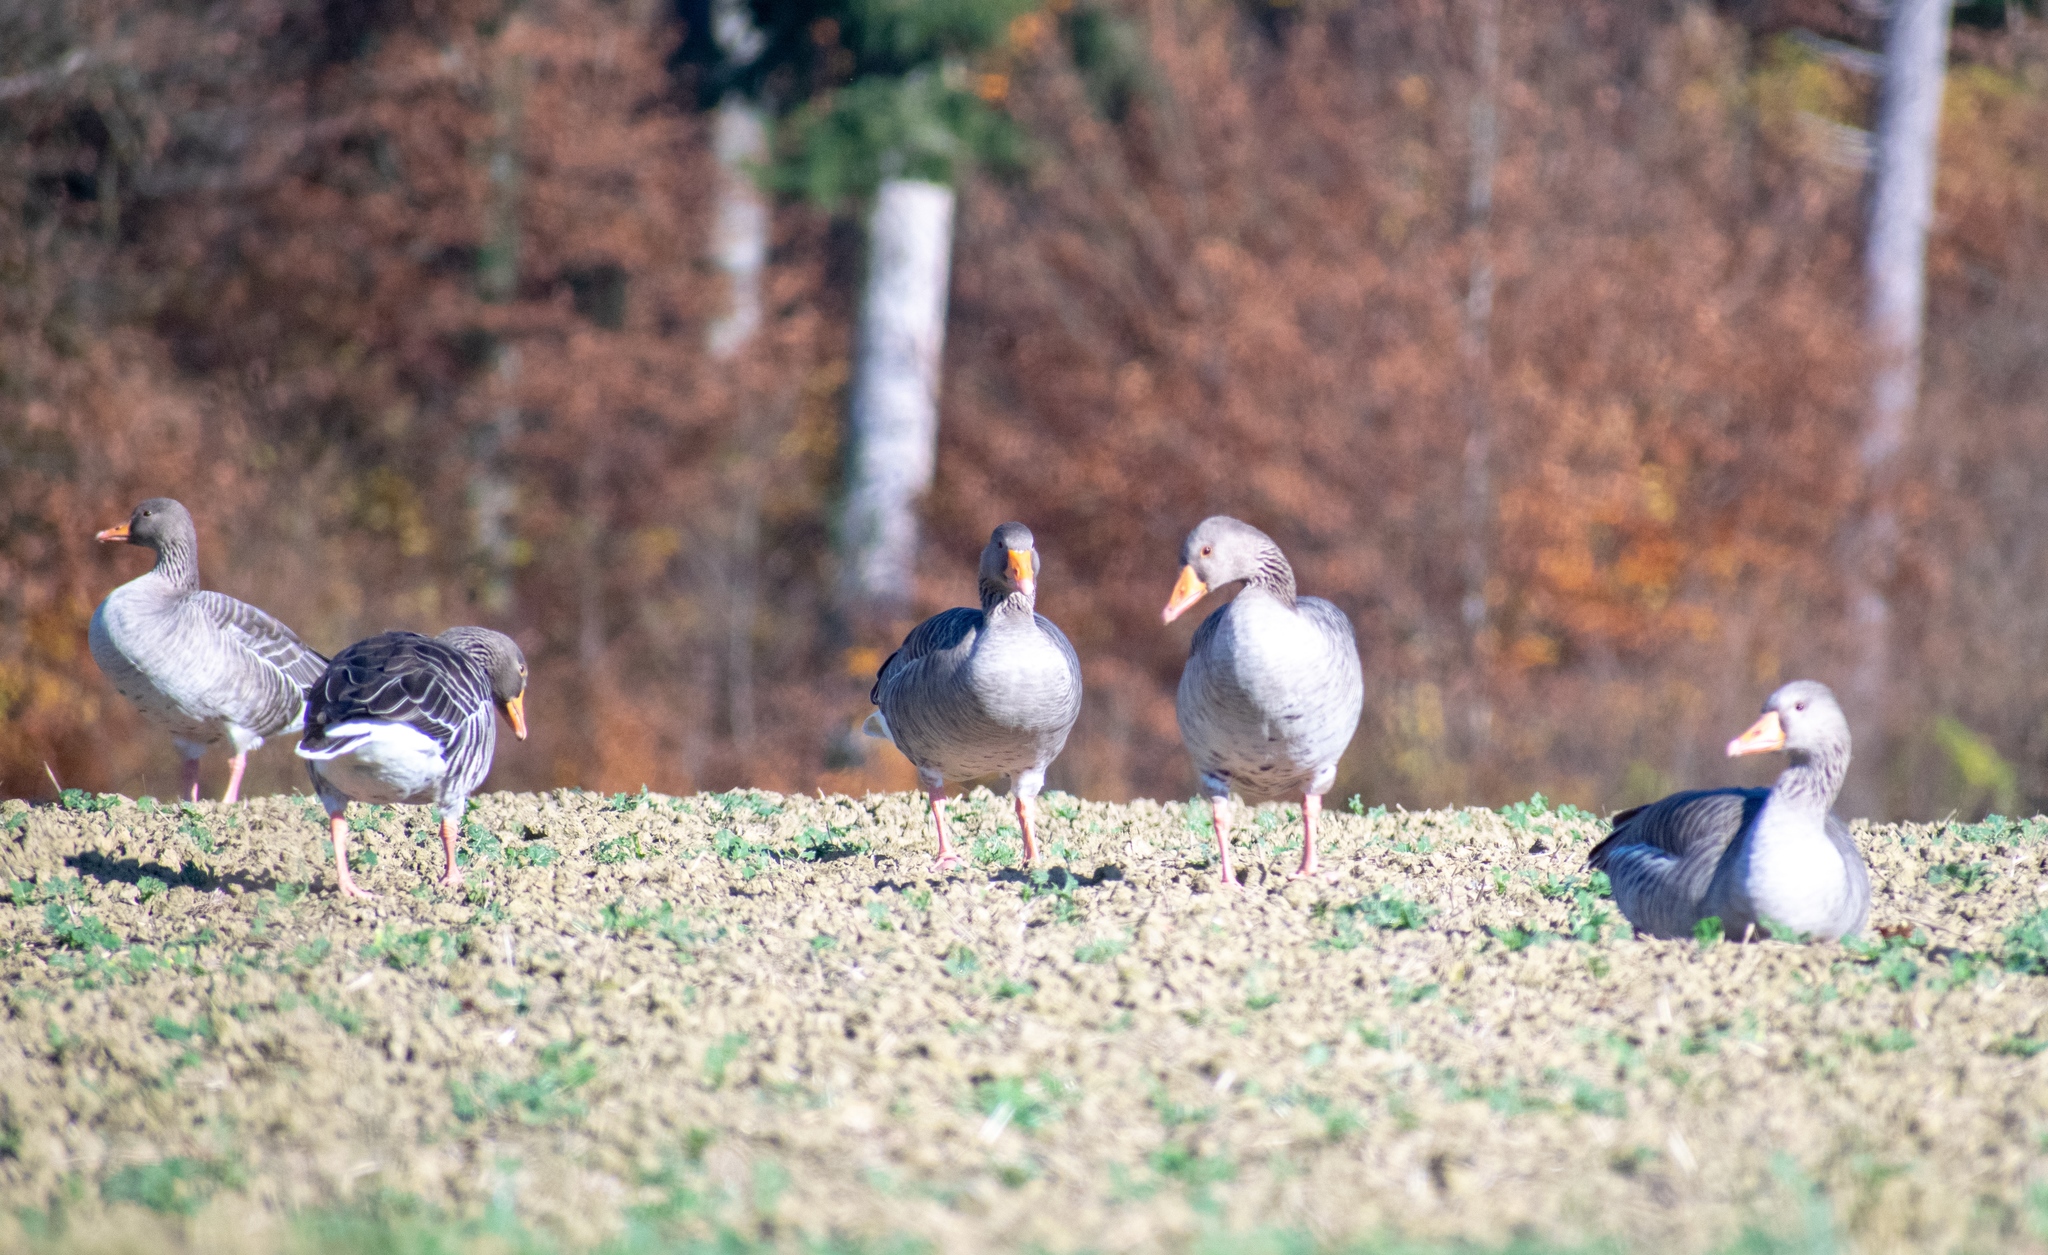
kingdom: Animalia
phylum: Chordata
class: Aves
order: Anseriformes
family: Anatidae
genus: Anser
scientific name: Anser anser
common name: Greylag goose
